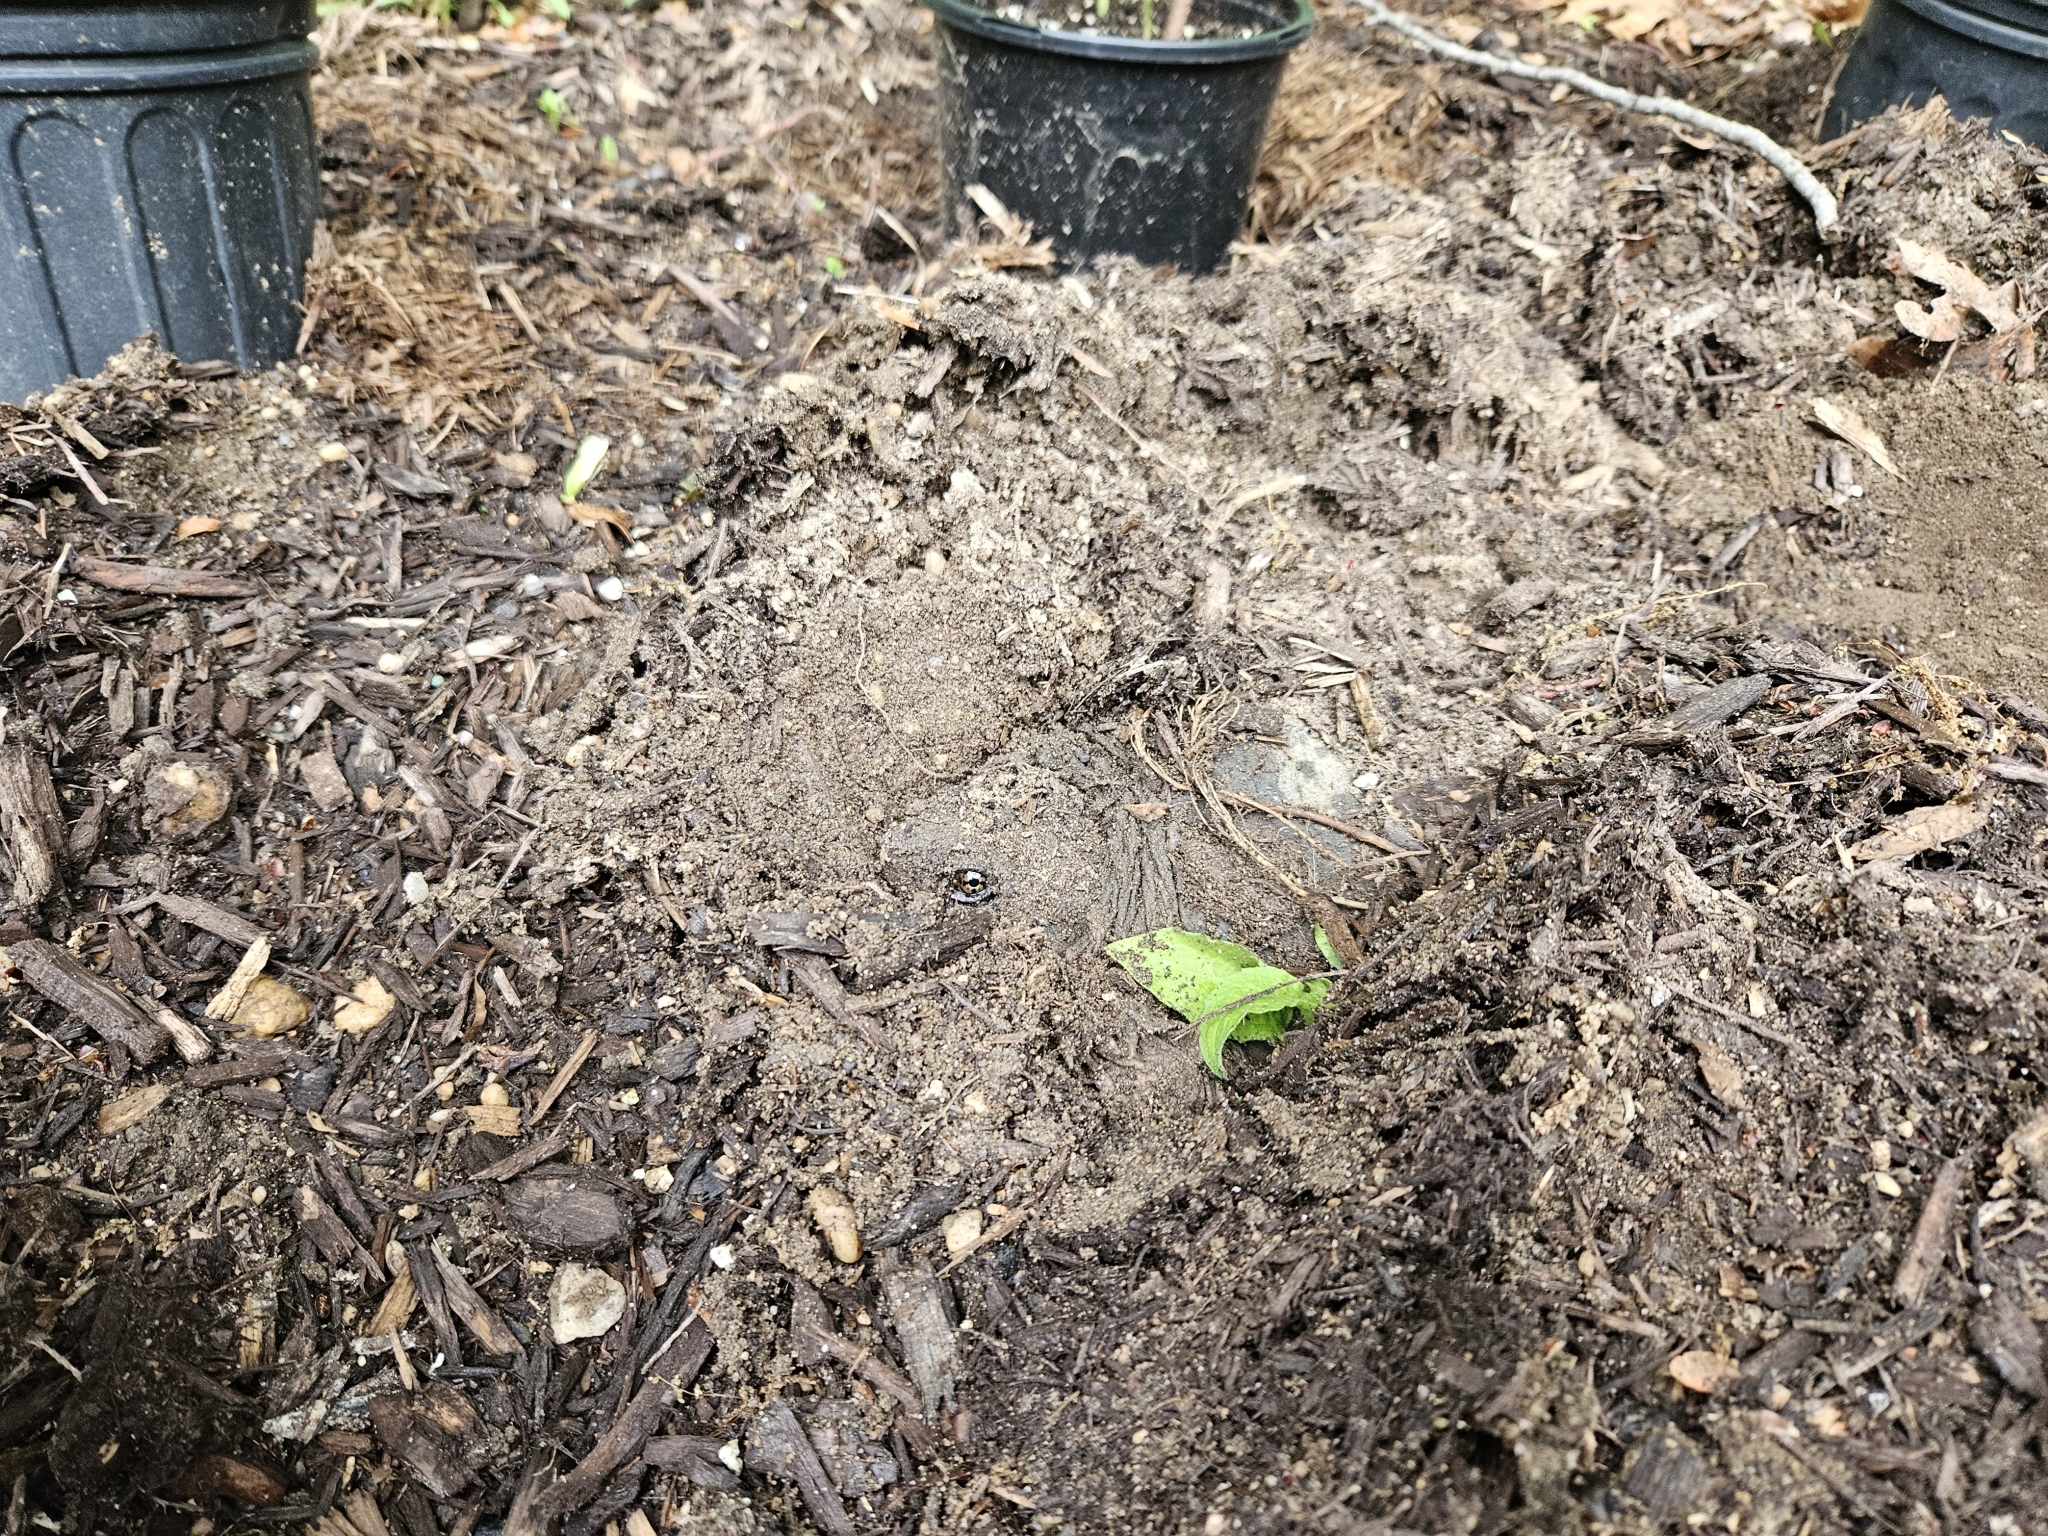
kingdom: Animalia
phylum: Chordata
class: Testudines
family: Chelydridae
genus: Chelydra
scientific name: Chelydra serpentina
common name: Common snapping turtle
